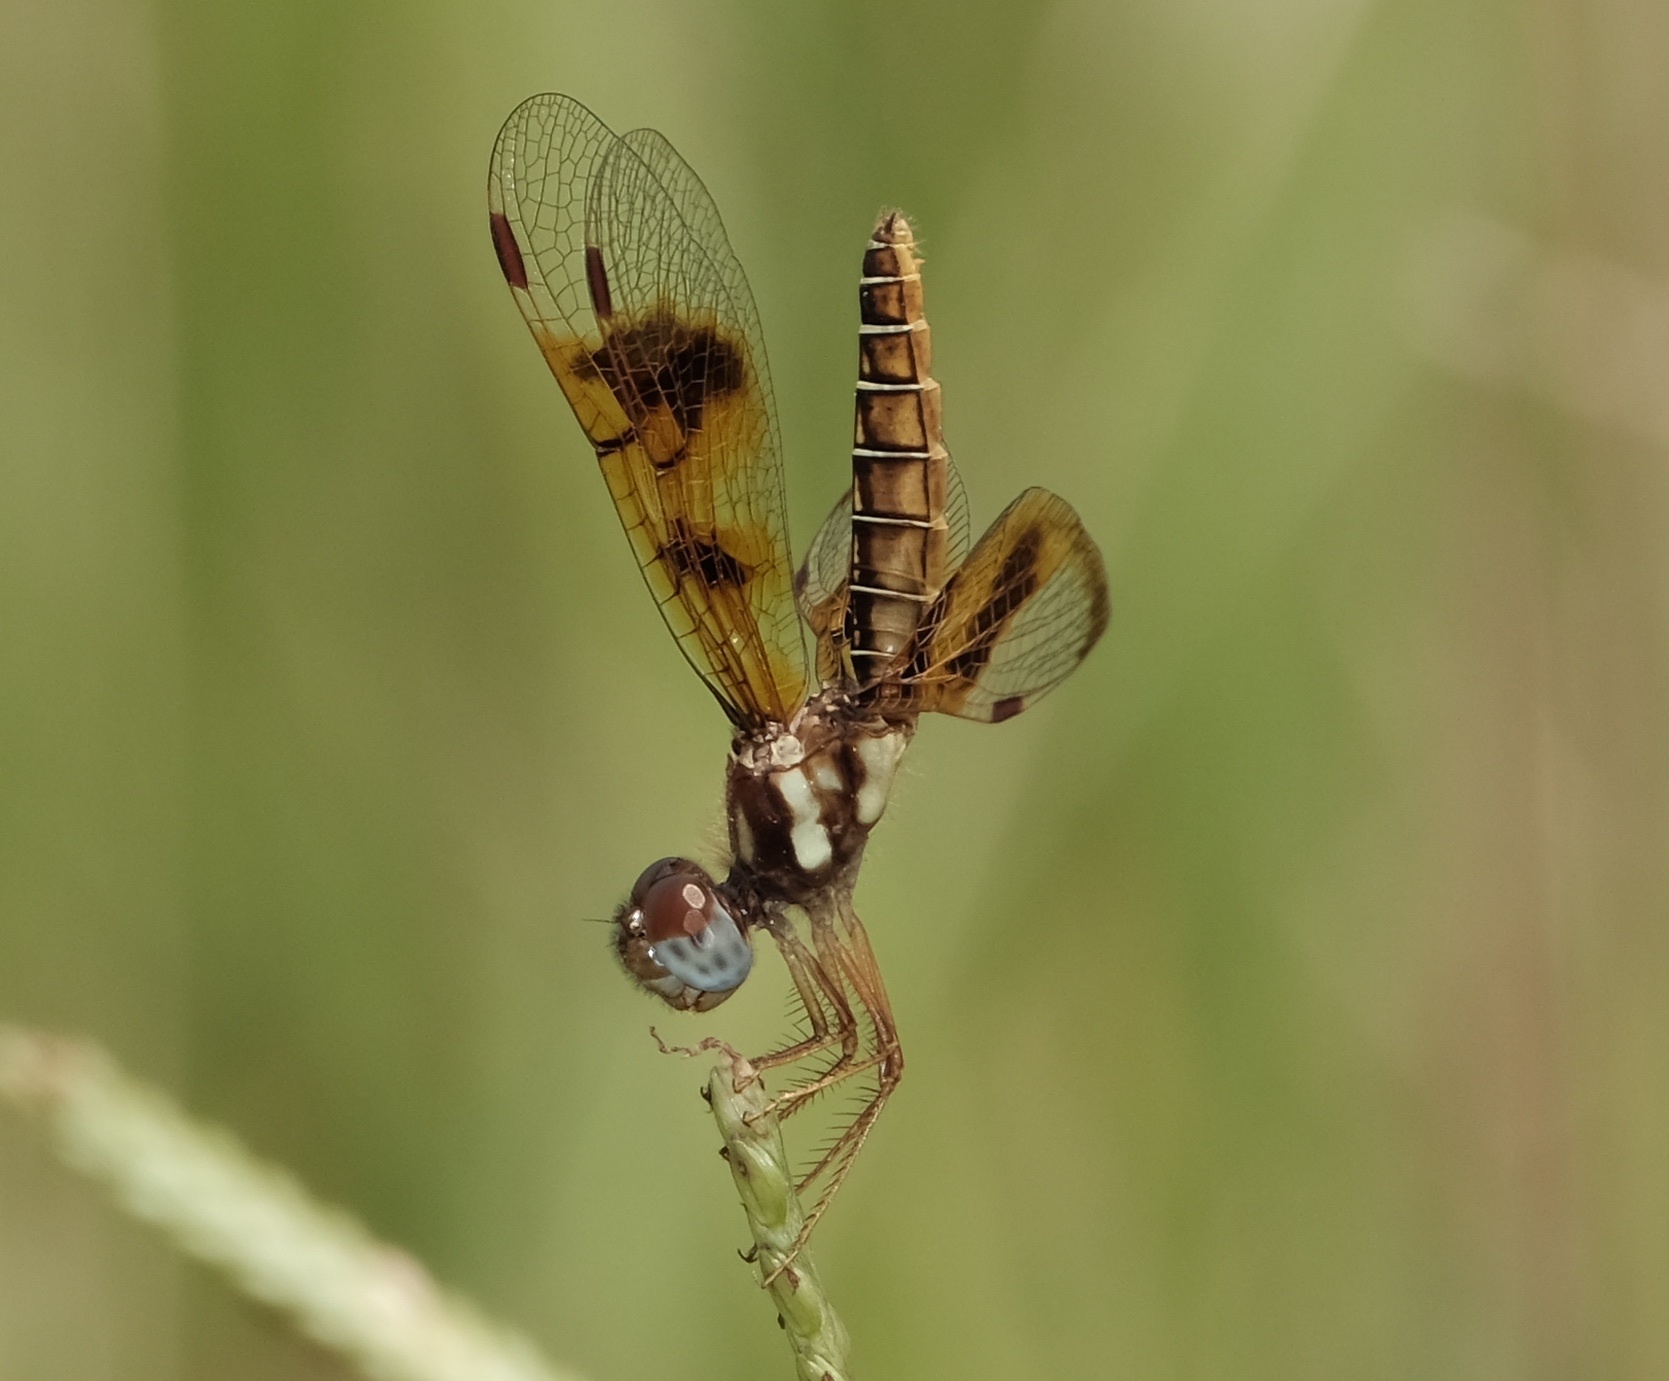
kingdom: Animalia
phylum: Arthropoda
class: Insecta
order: Odonata
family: Libellulidae
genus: Perithemis
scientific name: Perithemis tenera
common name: Eastern amberwing
